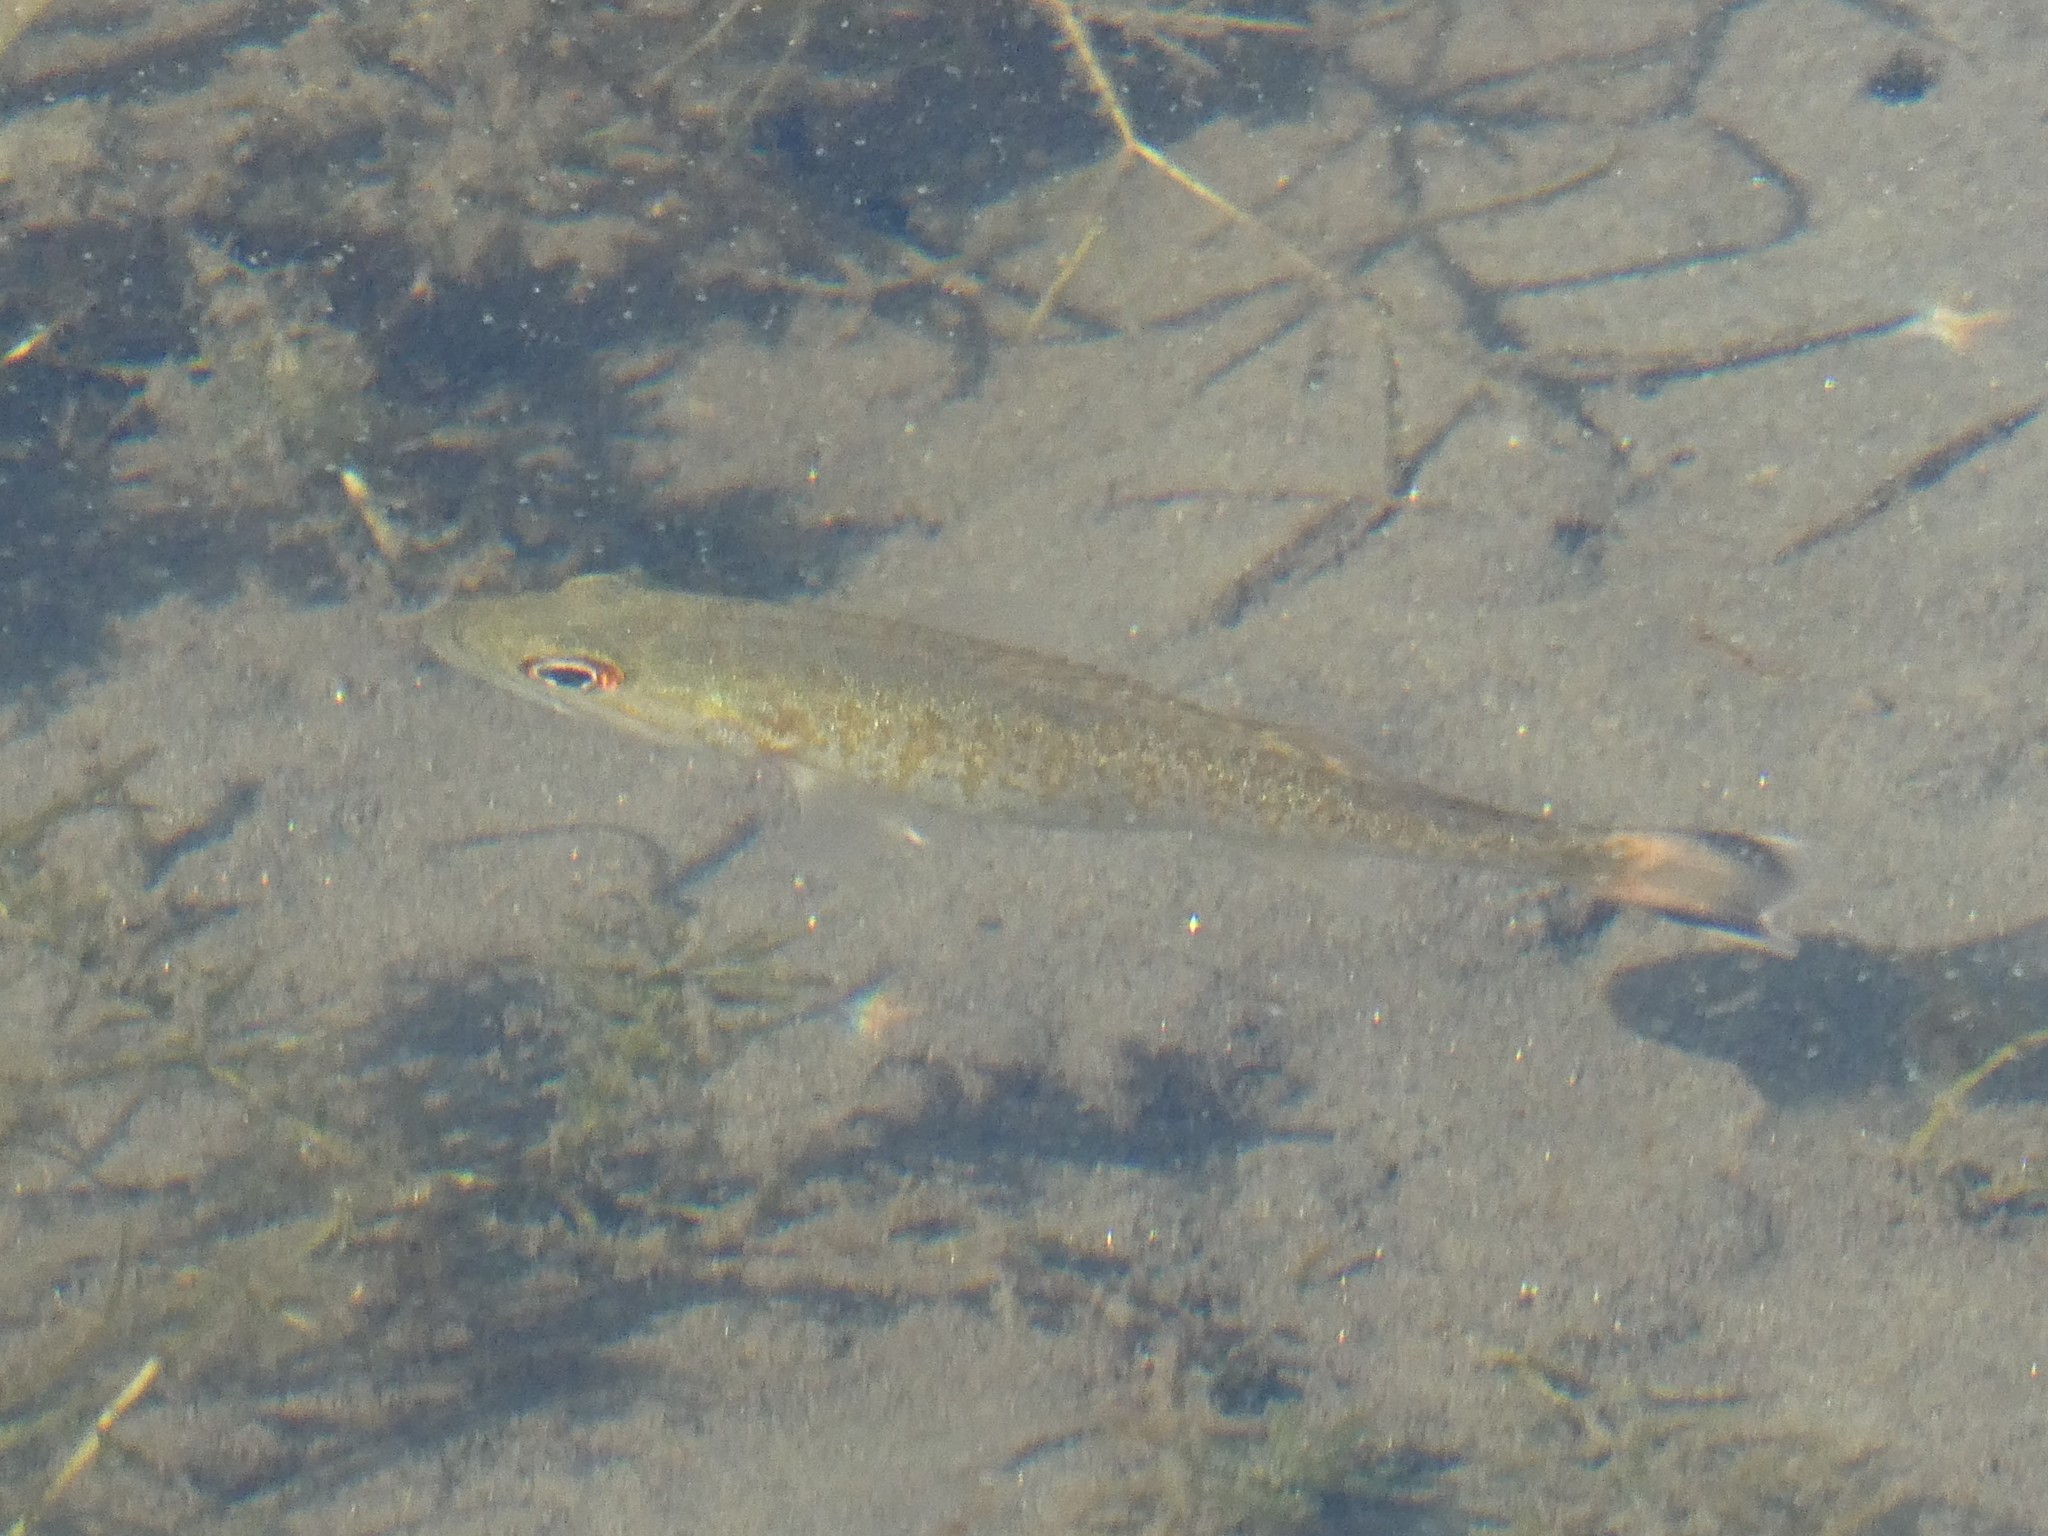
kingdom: Animalia
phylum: Chordata
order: Perciformes
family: Centrarchidae
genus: Micropterus
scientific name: Micropterus dolomieu
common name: Smallmouth bass
